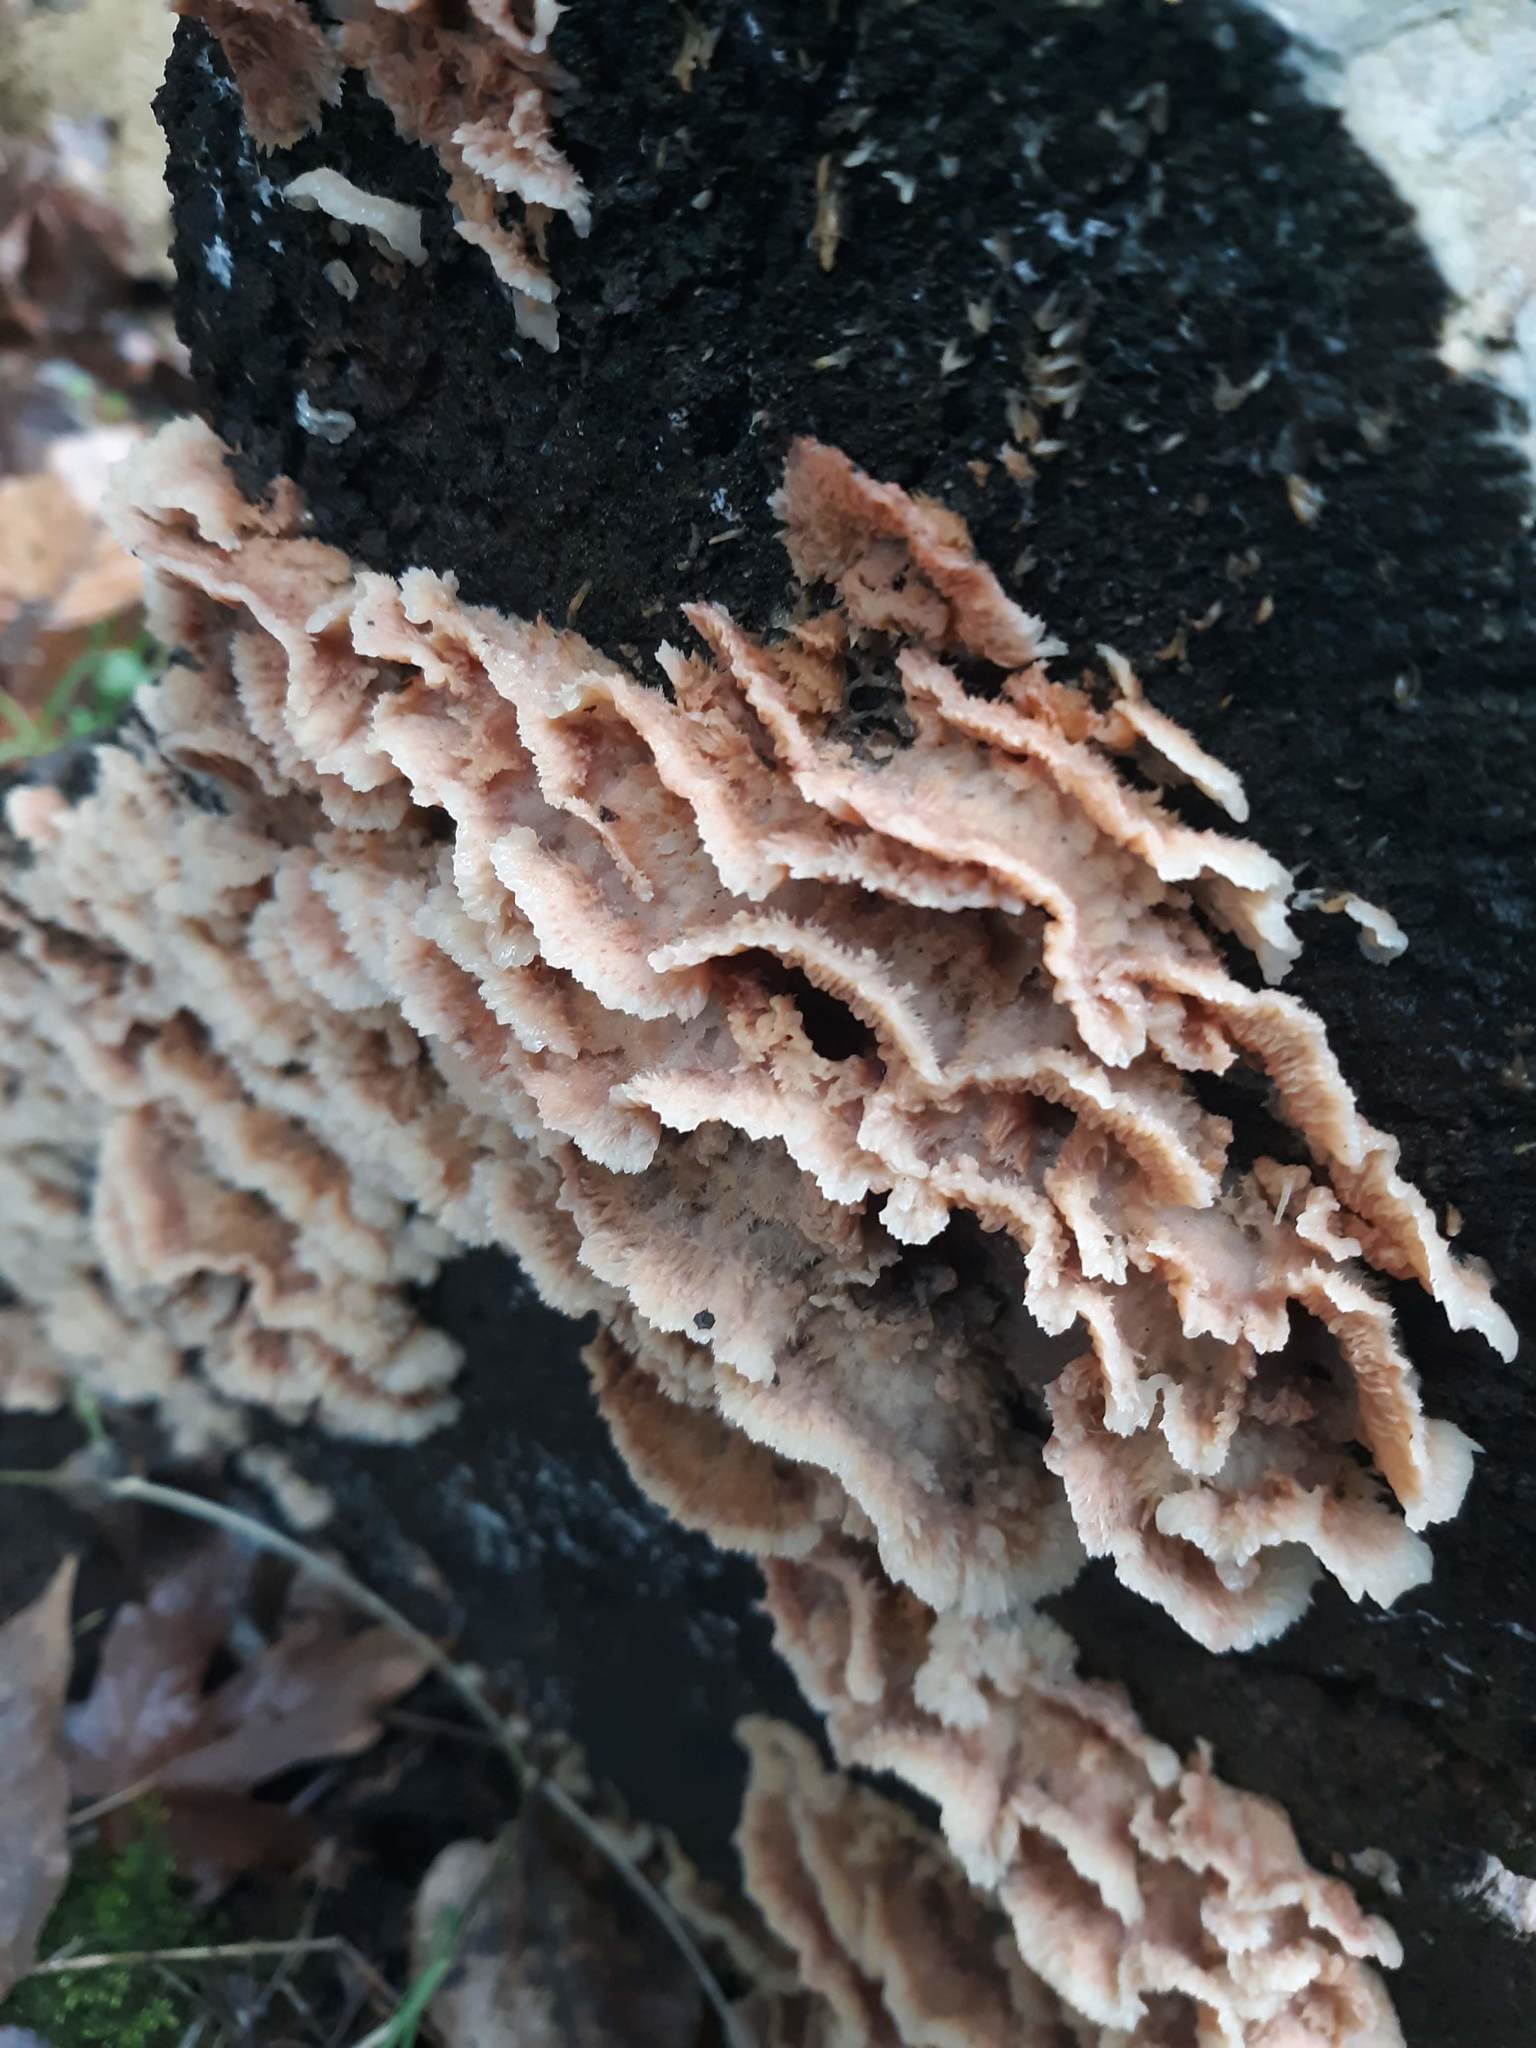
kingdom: Fungi
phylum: Basidiomycota
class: Agaricomycetes
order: Polyporales
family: Meruliaceae
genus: Phlebia
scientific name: Phlebia tremellosa
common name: Jelly rot
